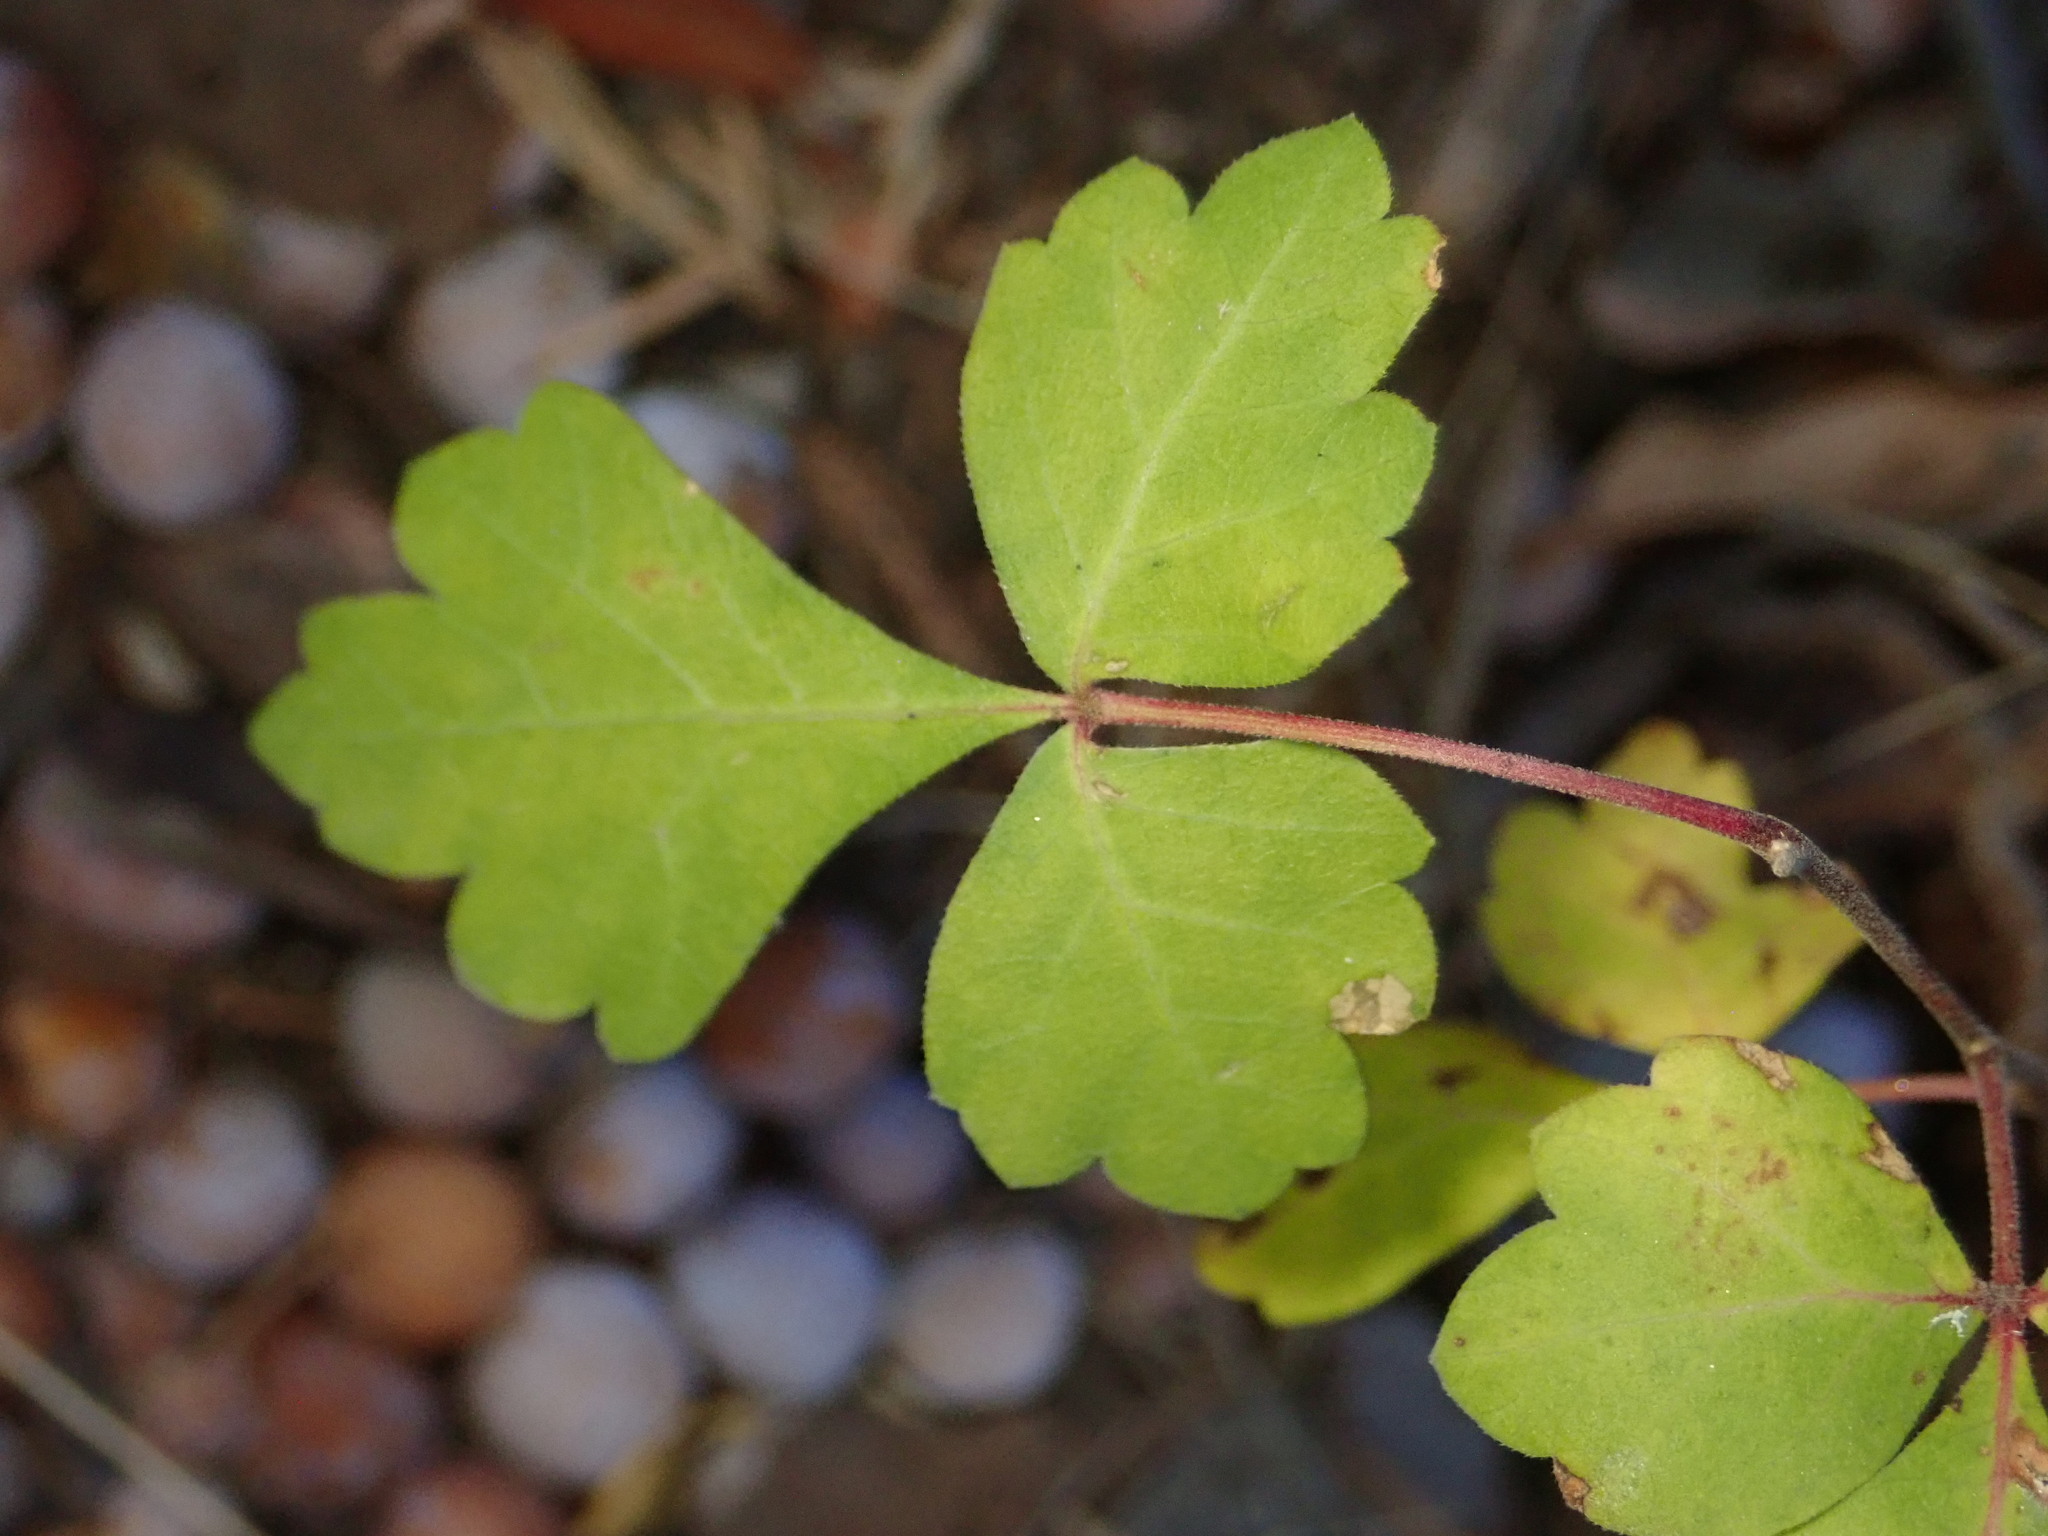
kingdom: Plantae
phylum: Tracheophyta
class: Magnoliopsida
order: Sapindales
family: Anacardiaceae
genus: Rhus
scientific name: Rhus aromatica
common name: Aromatic sumac
